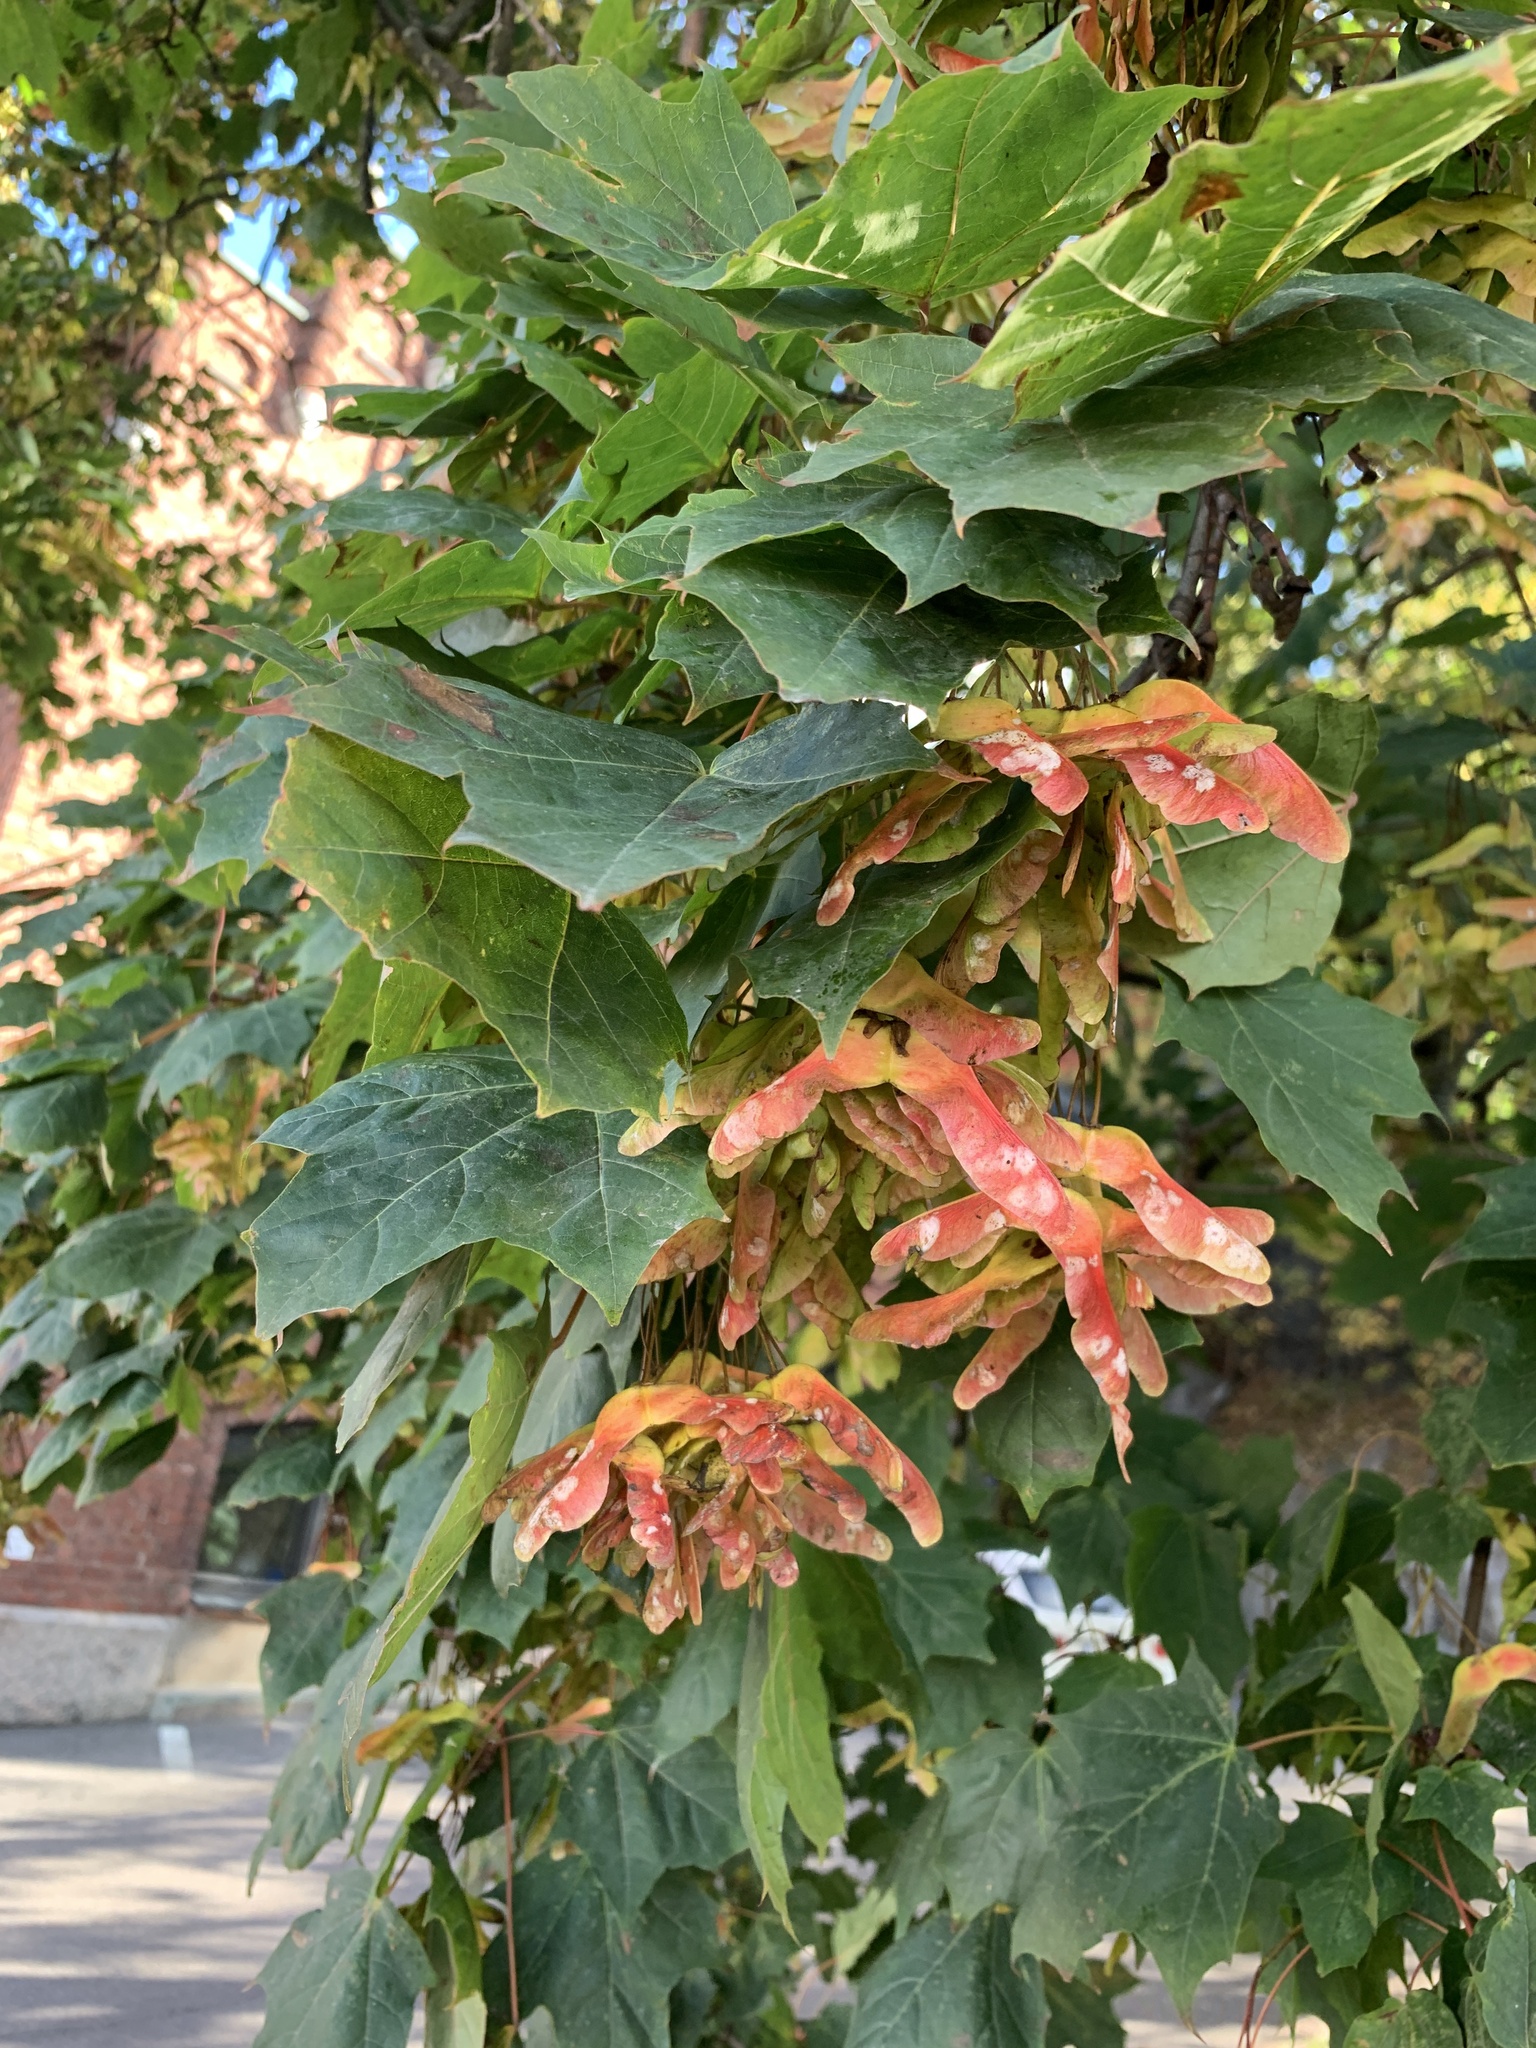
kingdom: Plantae
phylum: Tracheophyta
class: Magnoliopsida
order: Sapindales
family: Sapindaceae
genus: Acer
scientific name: Acer platanoides
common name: Norway maple
